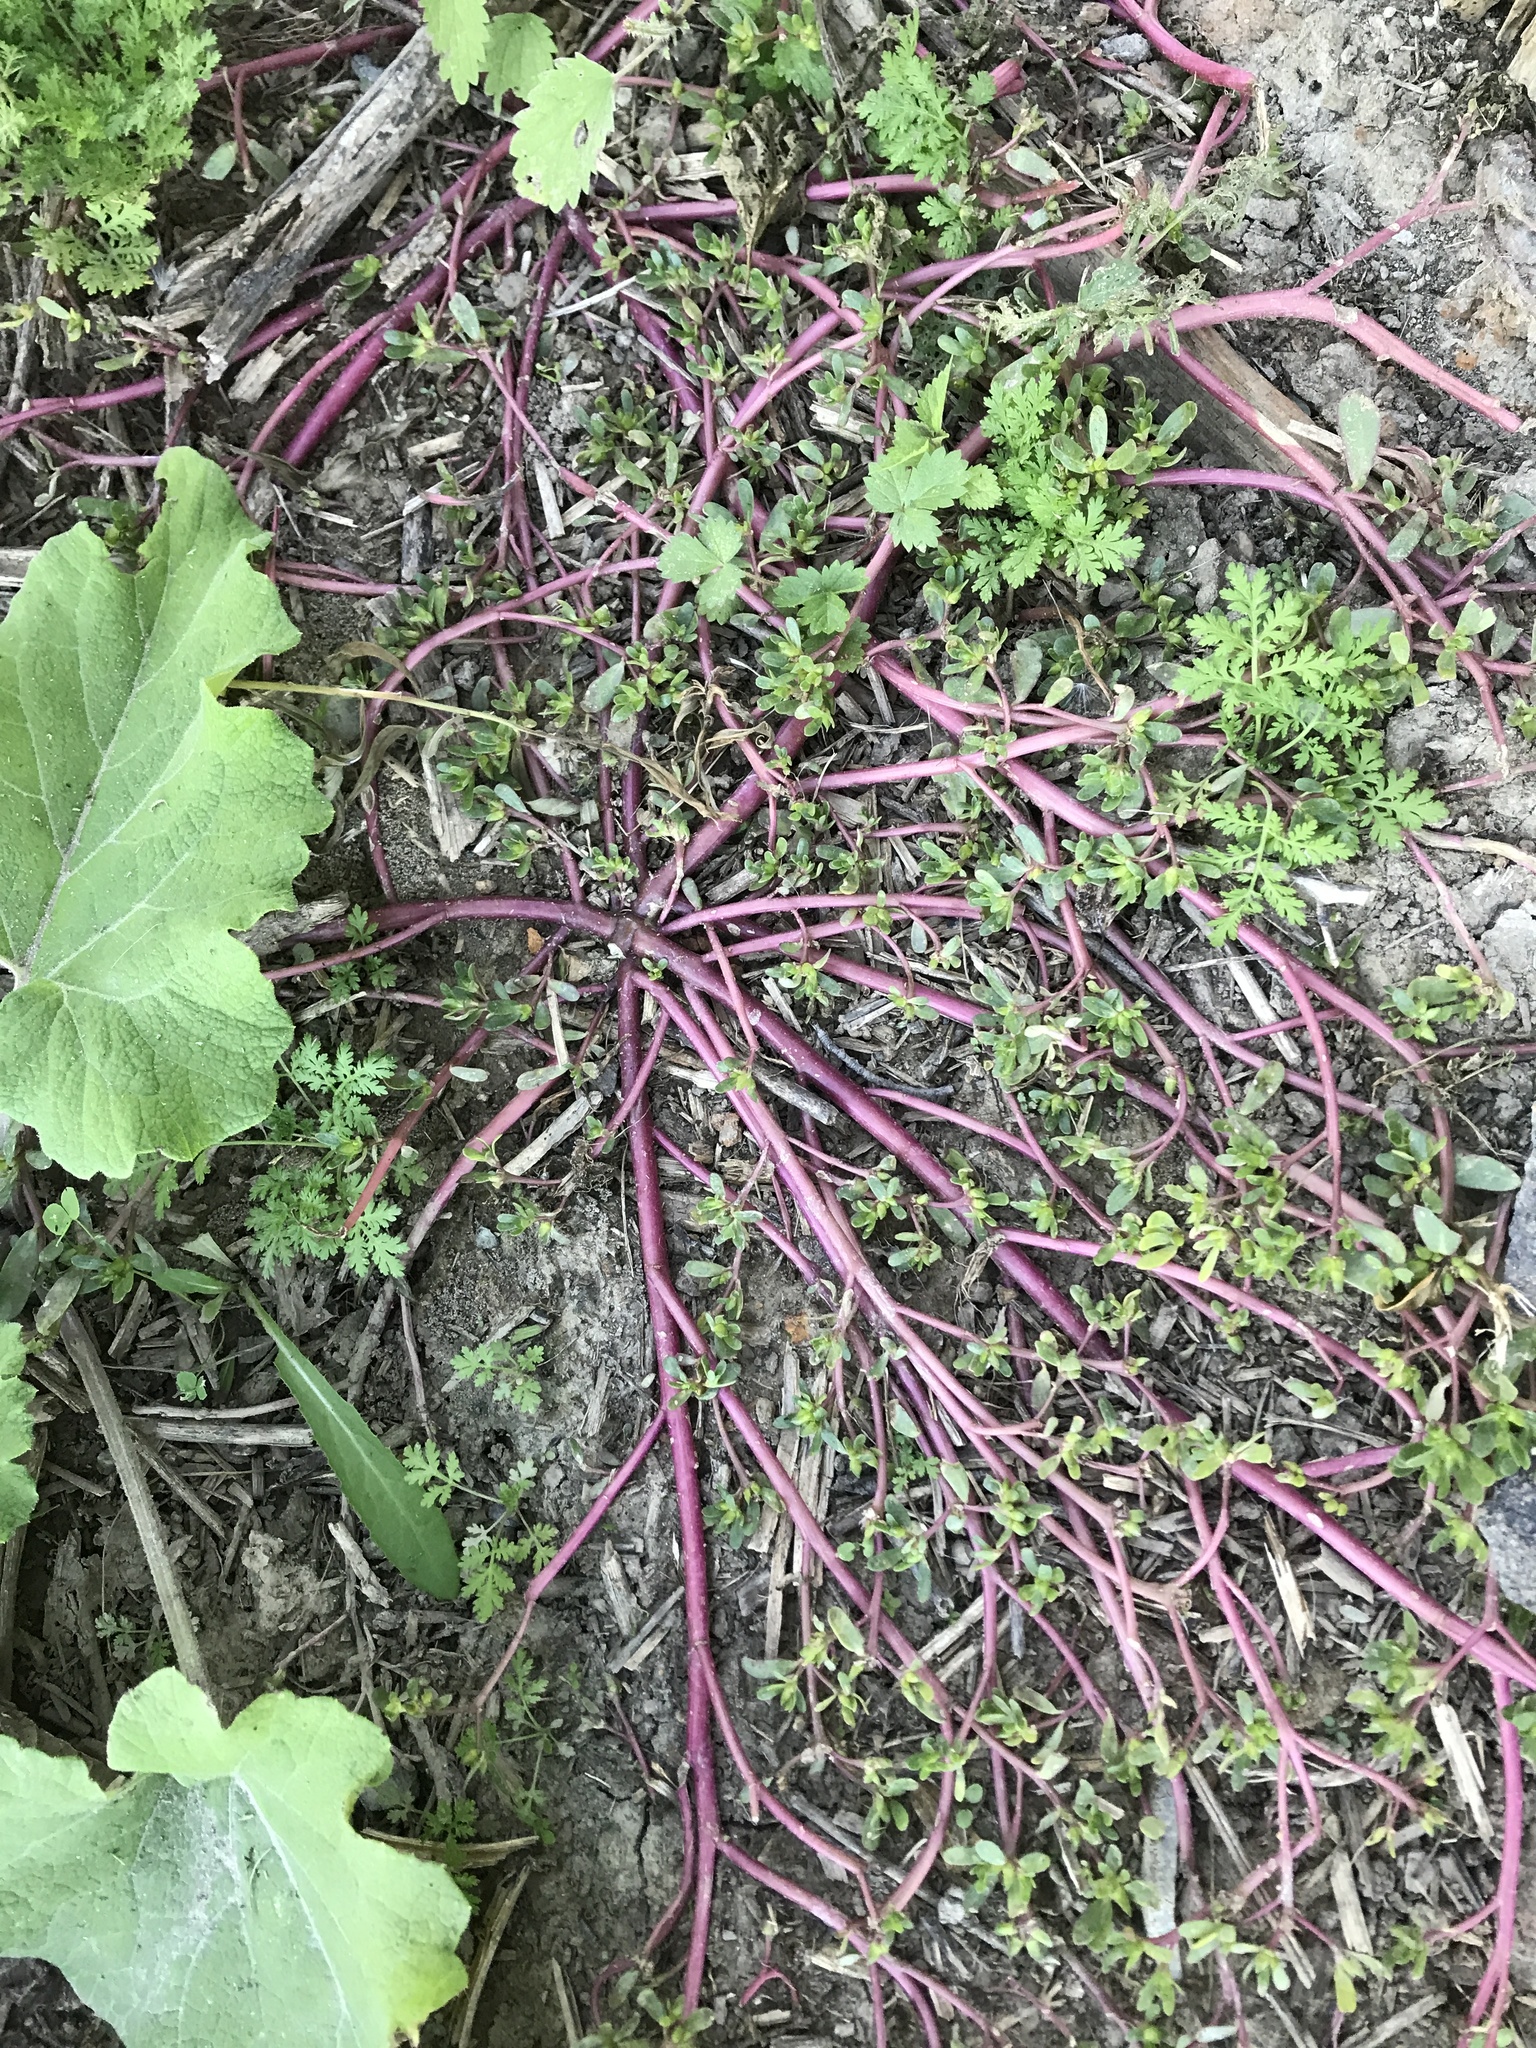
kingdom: Plantae
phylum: Tracheophyta
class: Magnoliopsida
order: Caryophyllales
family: Portulacaceae
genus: Portulaca
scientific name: Portulaca oleracea
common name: Common purslane
